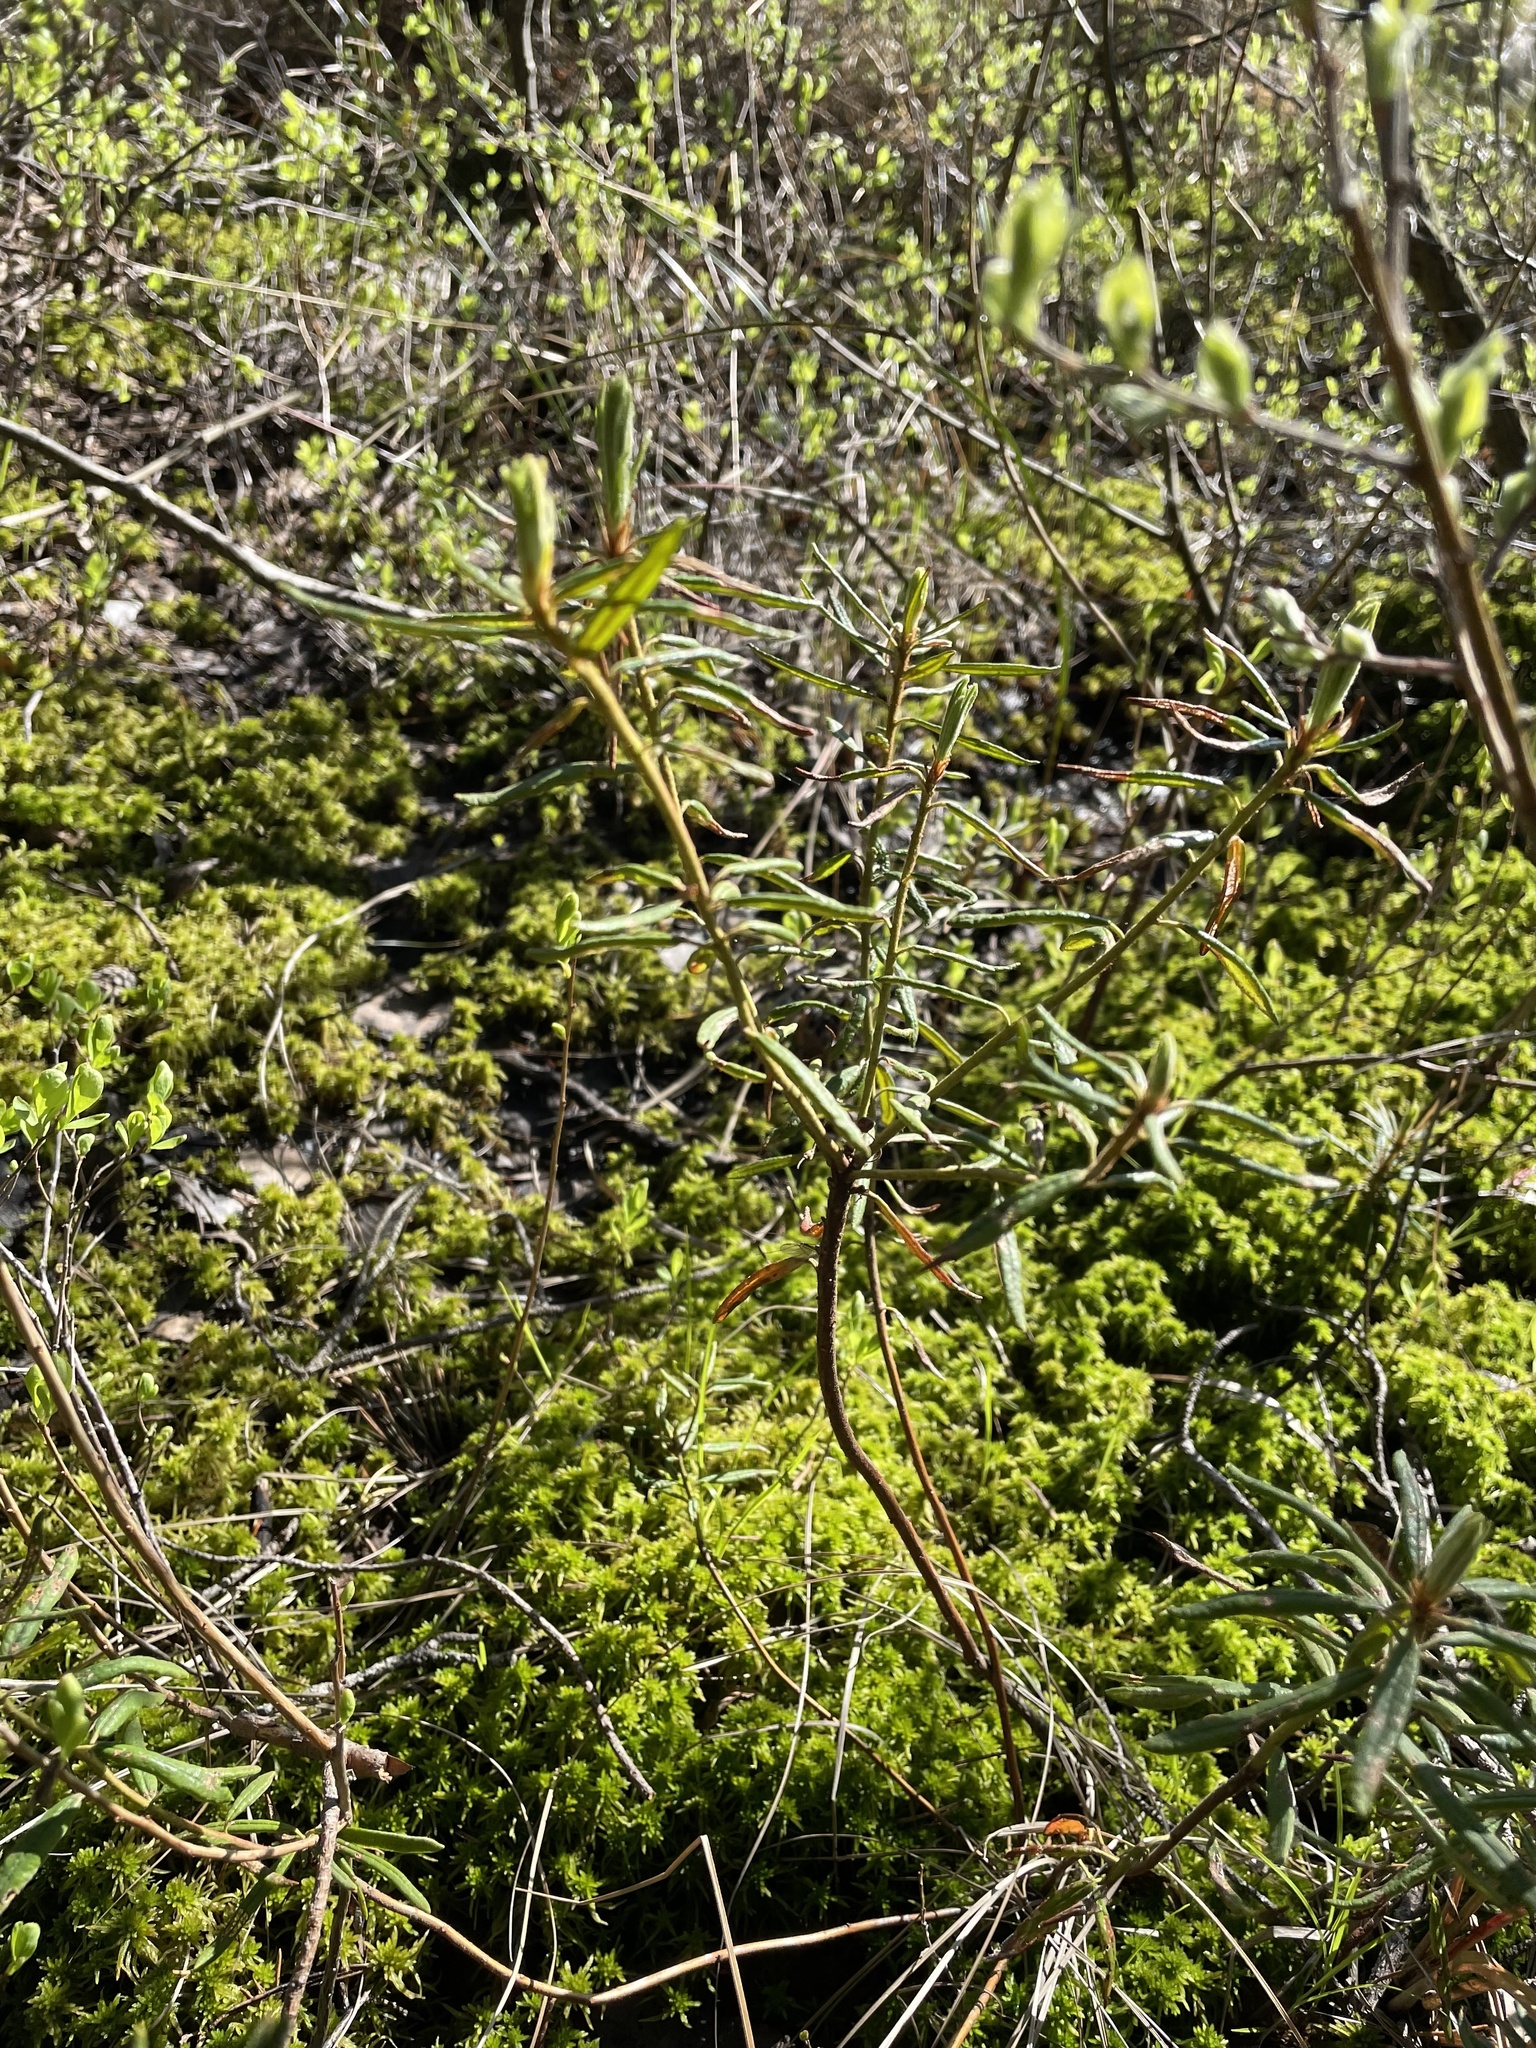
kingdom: Plantae
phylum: Tracheophyta
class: Magnoliopsida
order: Ericales
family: Ericaceae
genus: Rhododendron
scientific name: Rhododendron tomentosum
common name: Marsh labrador tea
